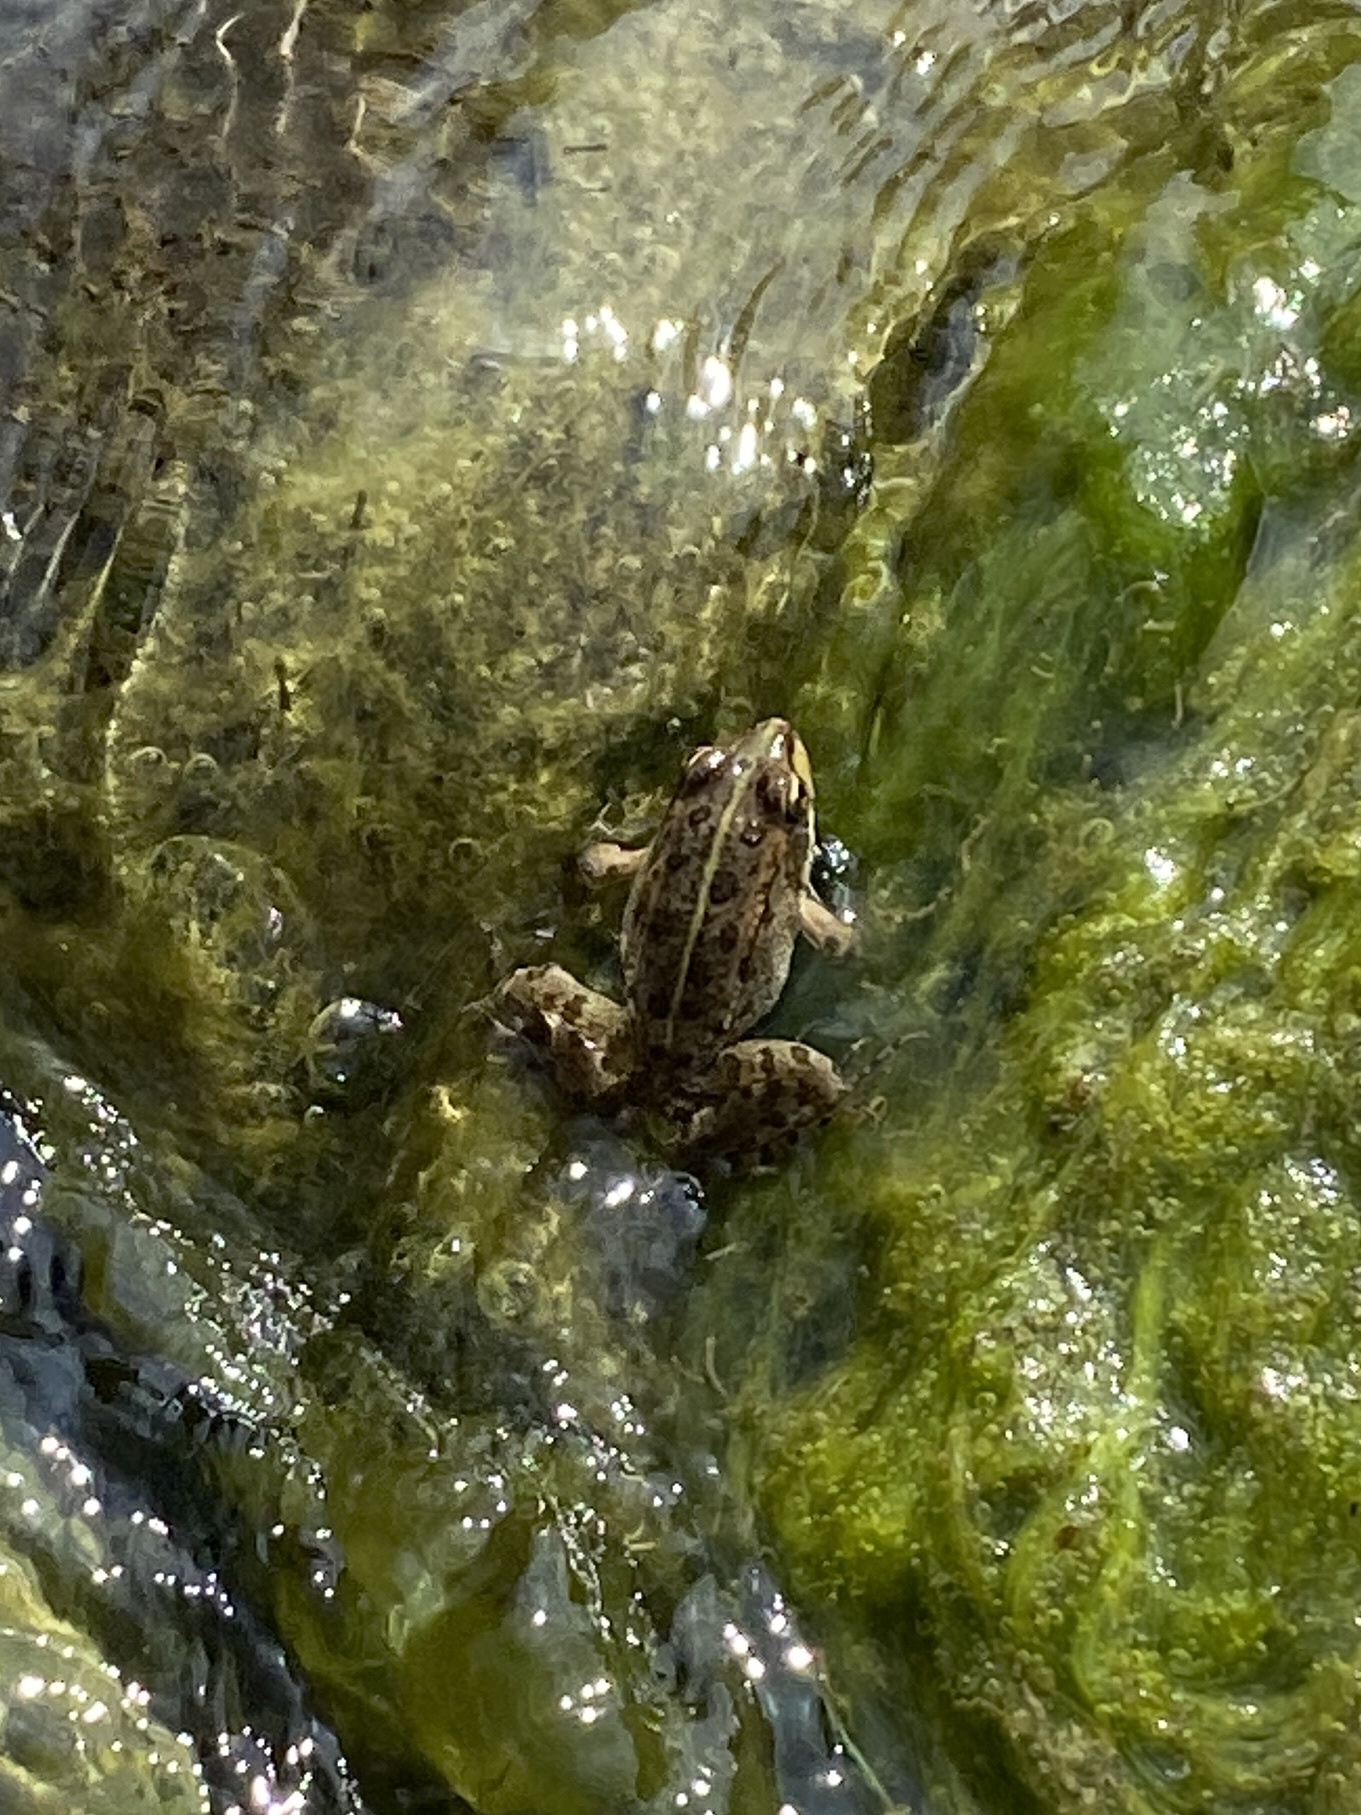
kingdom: Animalia
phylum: Chordata
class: Amphibia
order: Anura
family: Ranidae
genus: Pelophylax
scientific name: Pelophylax perezi
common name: Perez's frog
